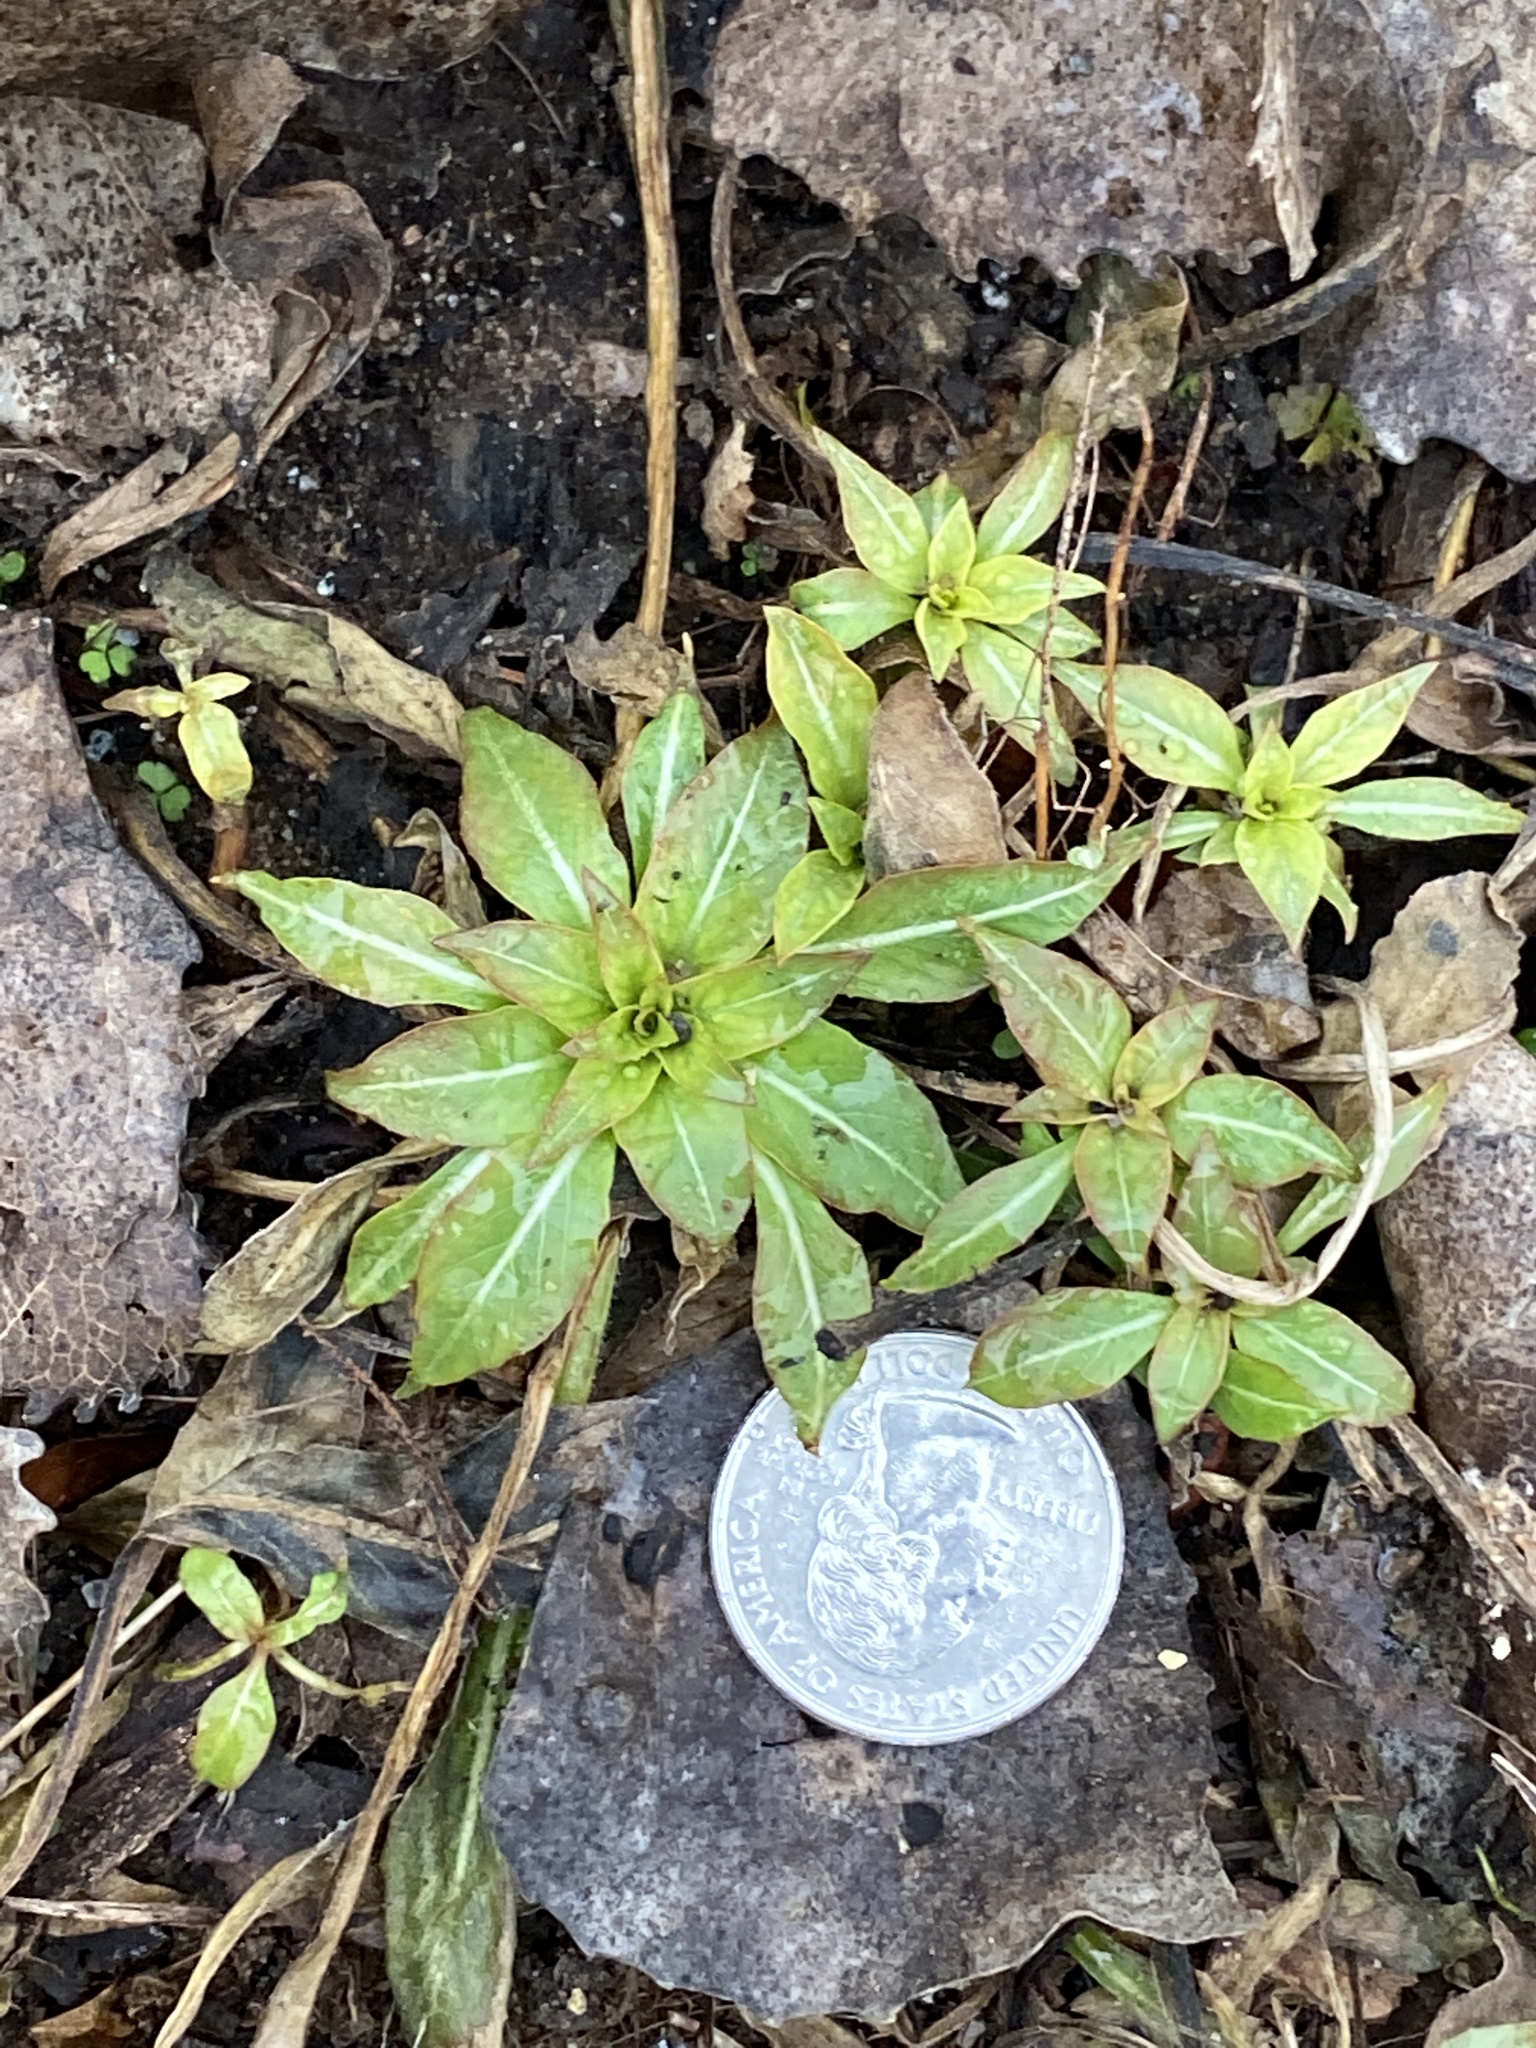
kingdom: Plantae
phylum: Tracheophyta
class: Magnoliopsida
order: Myrtales
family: Onagraceae
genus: Oenothera
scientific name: Oenothera biennis
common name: Common evening-primrose
